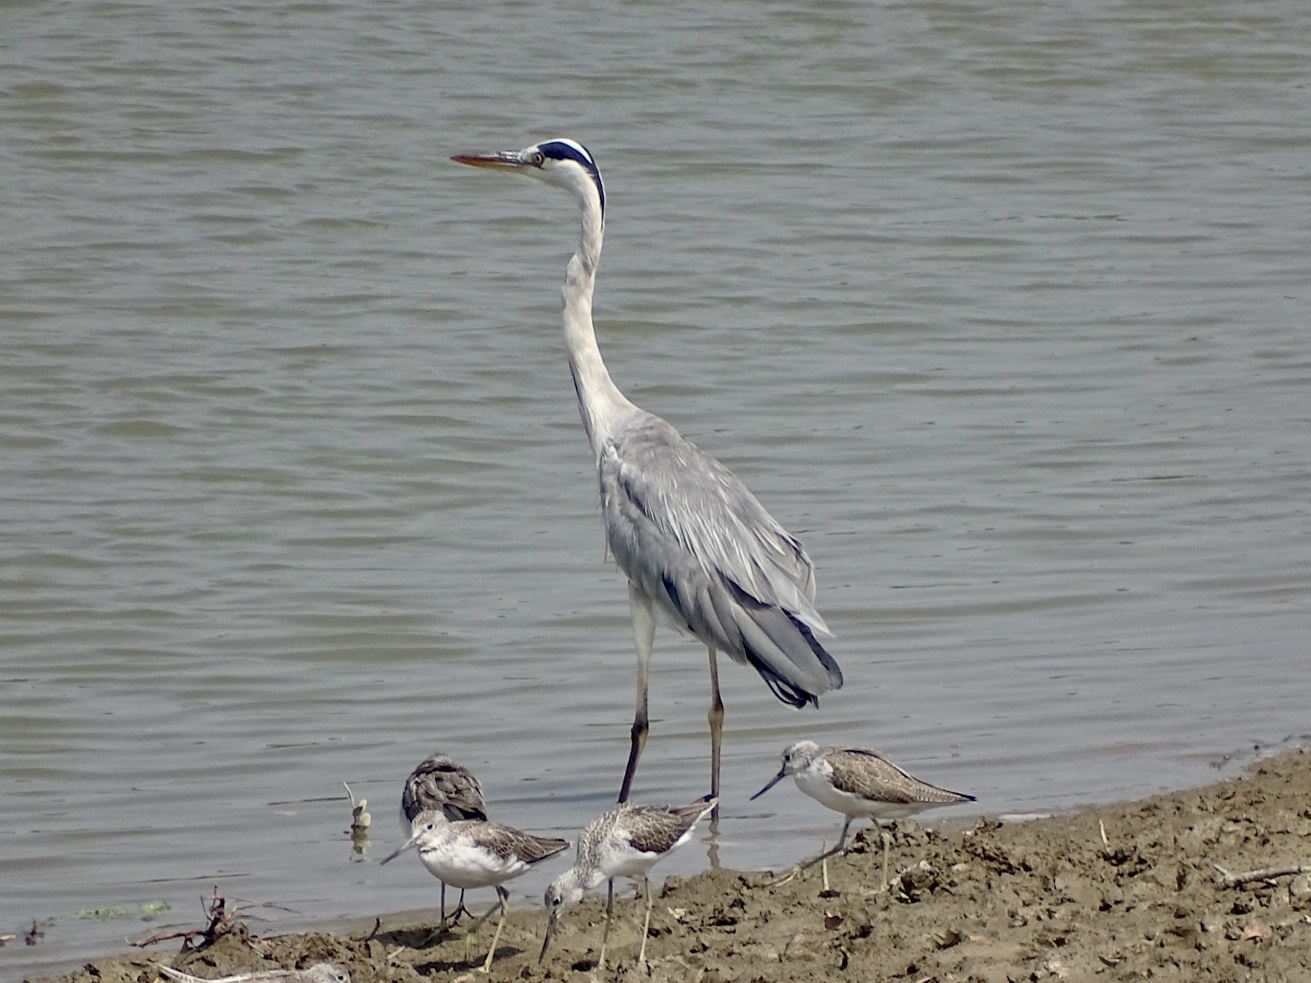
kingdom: Animalia
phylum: Chordata
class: Aves
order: Pelecaniformes
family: Ardeidae
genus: Ardea
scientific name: Ardea cinerea
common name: Grey heron
